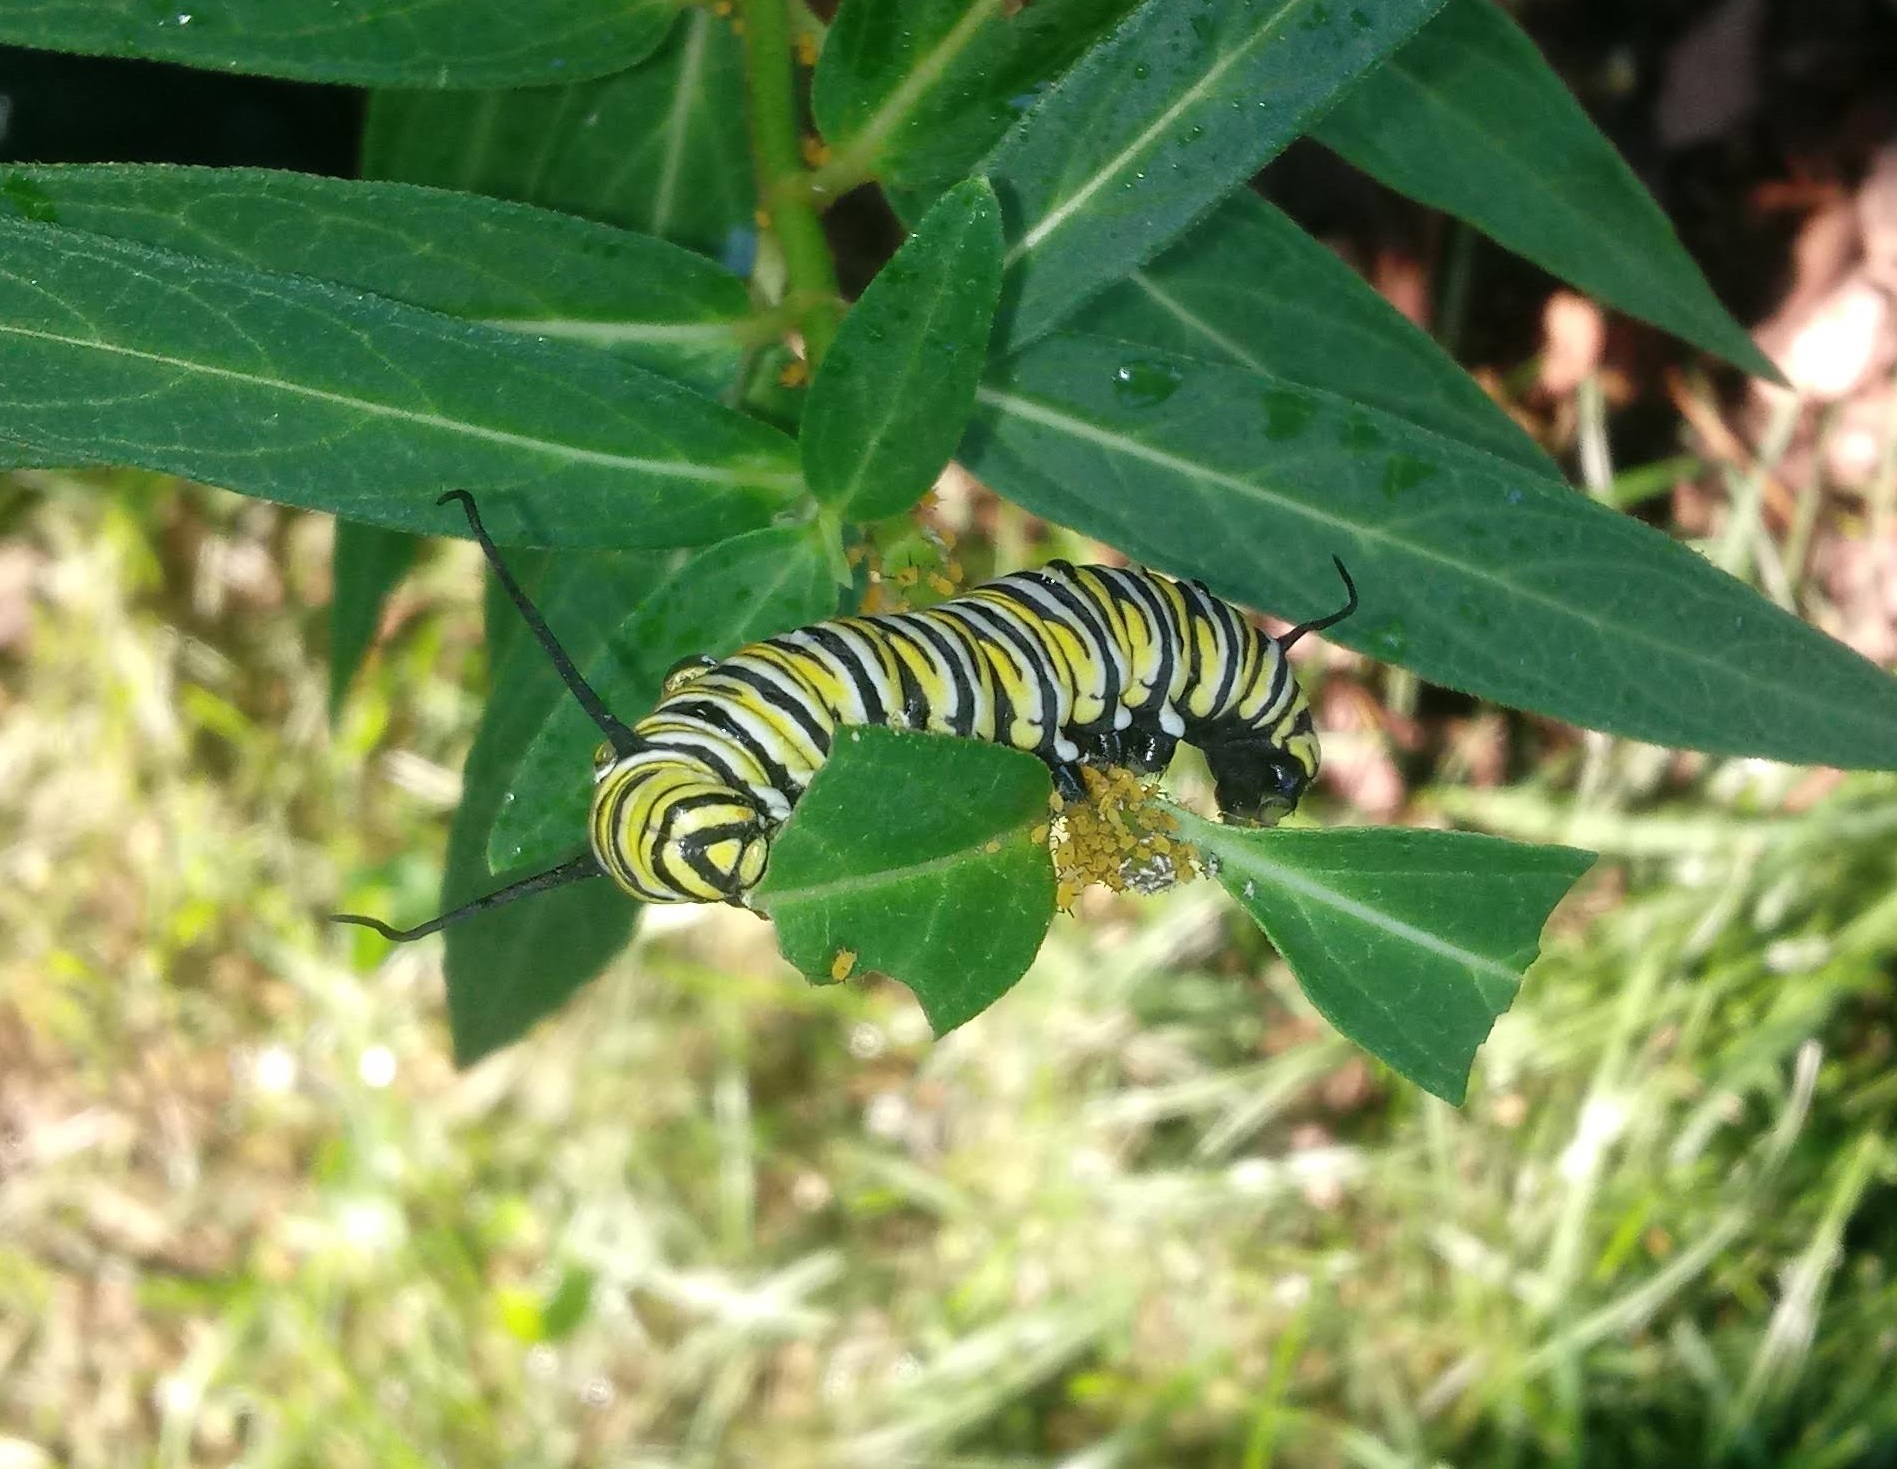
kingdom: Animalia
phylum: Arthropoda
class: Insecta
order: Lepidoptera
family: Nymphalidae
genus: Danaus
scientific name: Danaus plexippus
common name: Monarch
